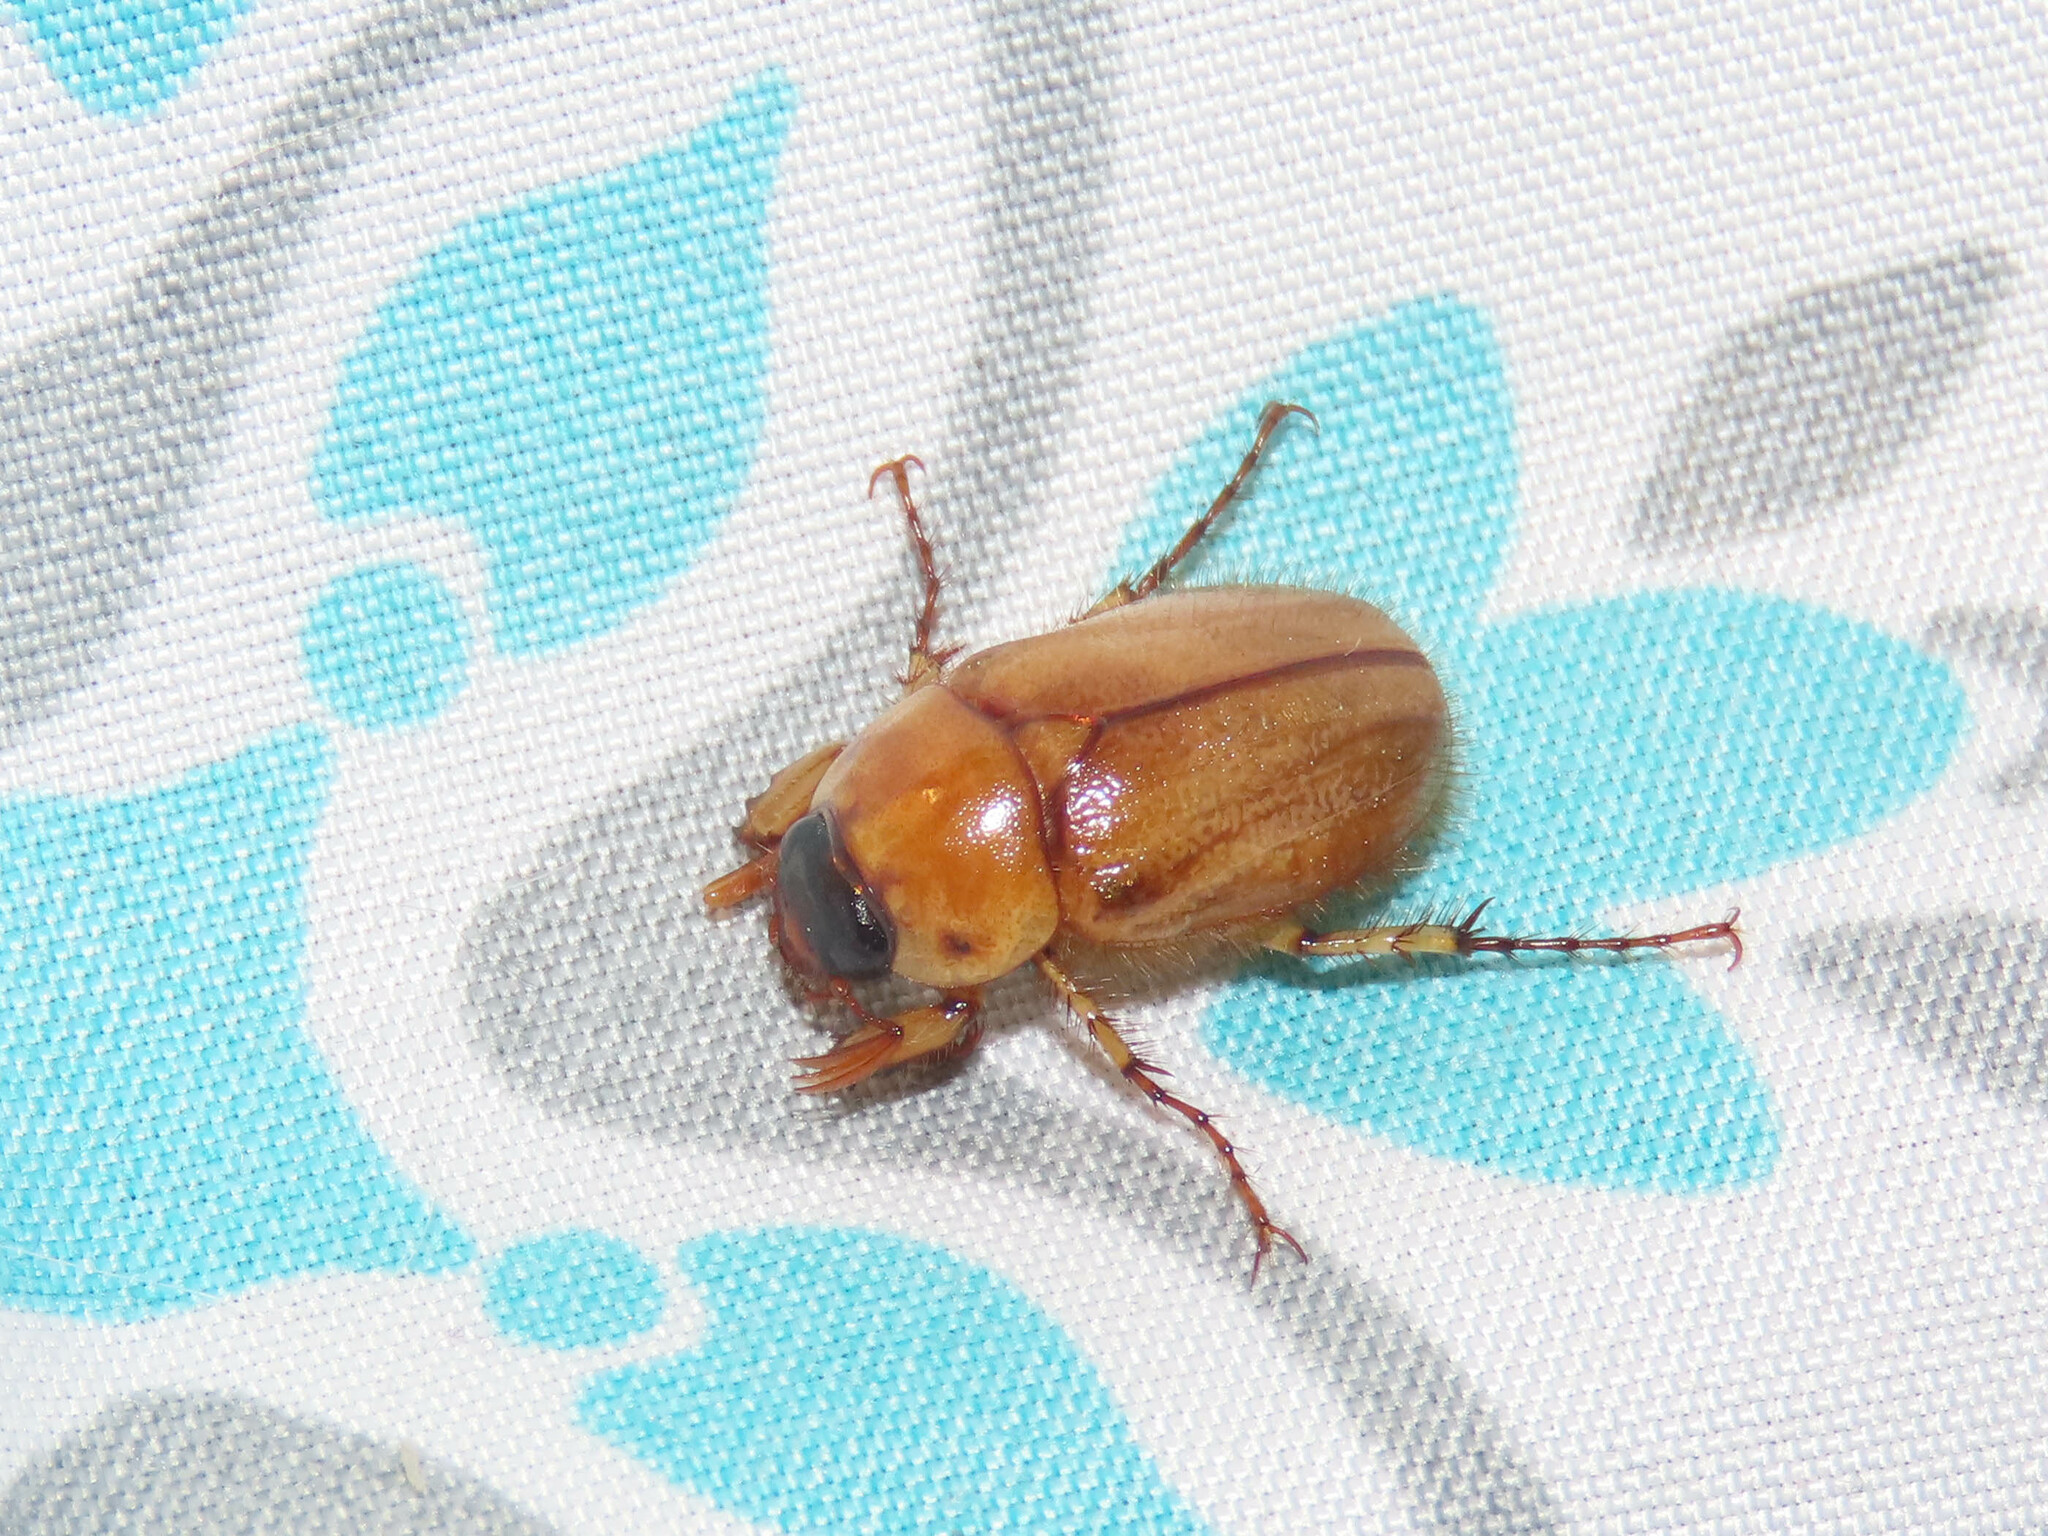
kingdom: Animalia
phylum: Arthropoda
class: Insecta
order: Coleoptera
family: Scarabaeidae
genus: Cyclocephala
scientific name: Cyclocephala lurida
